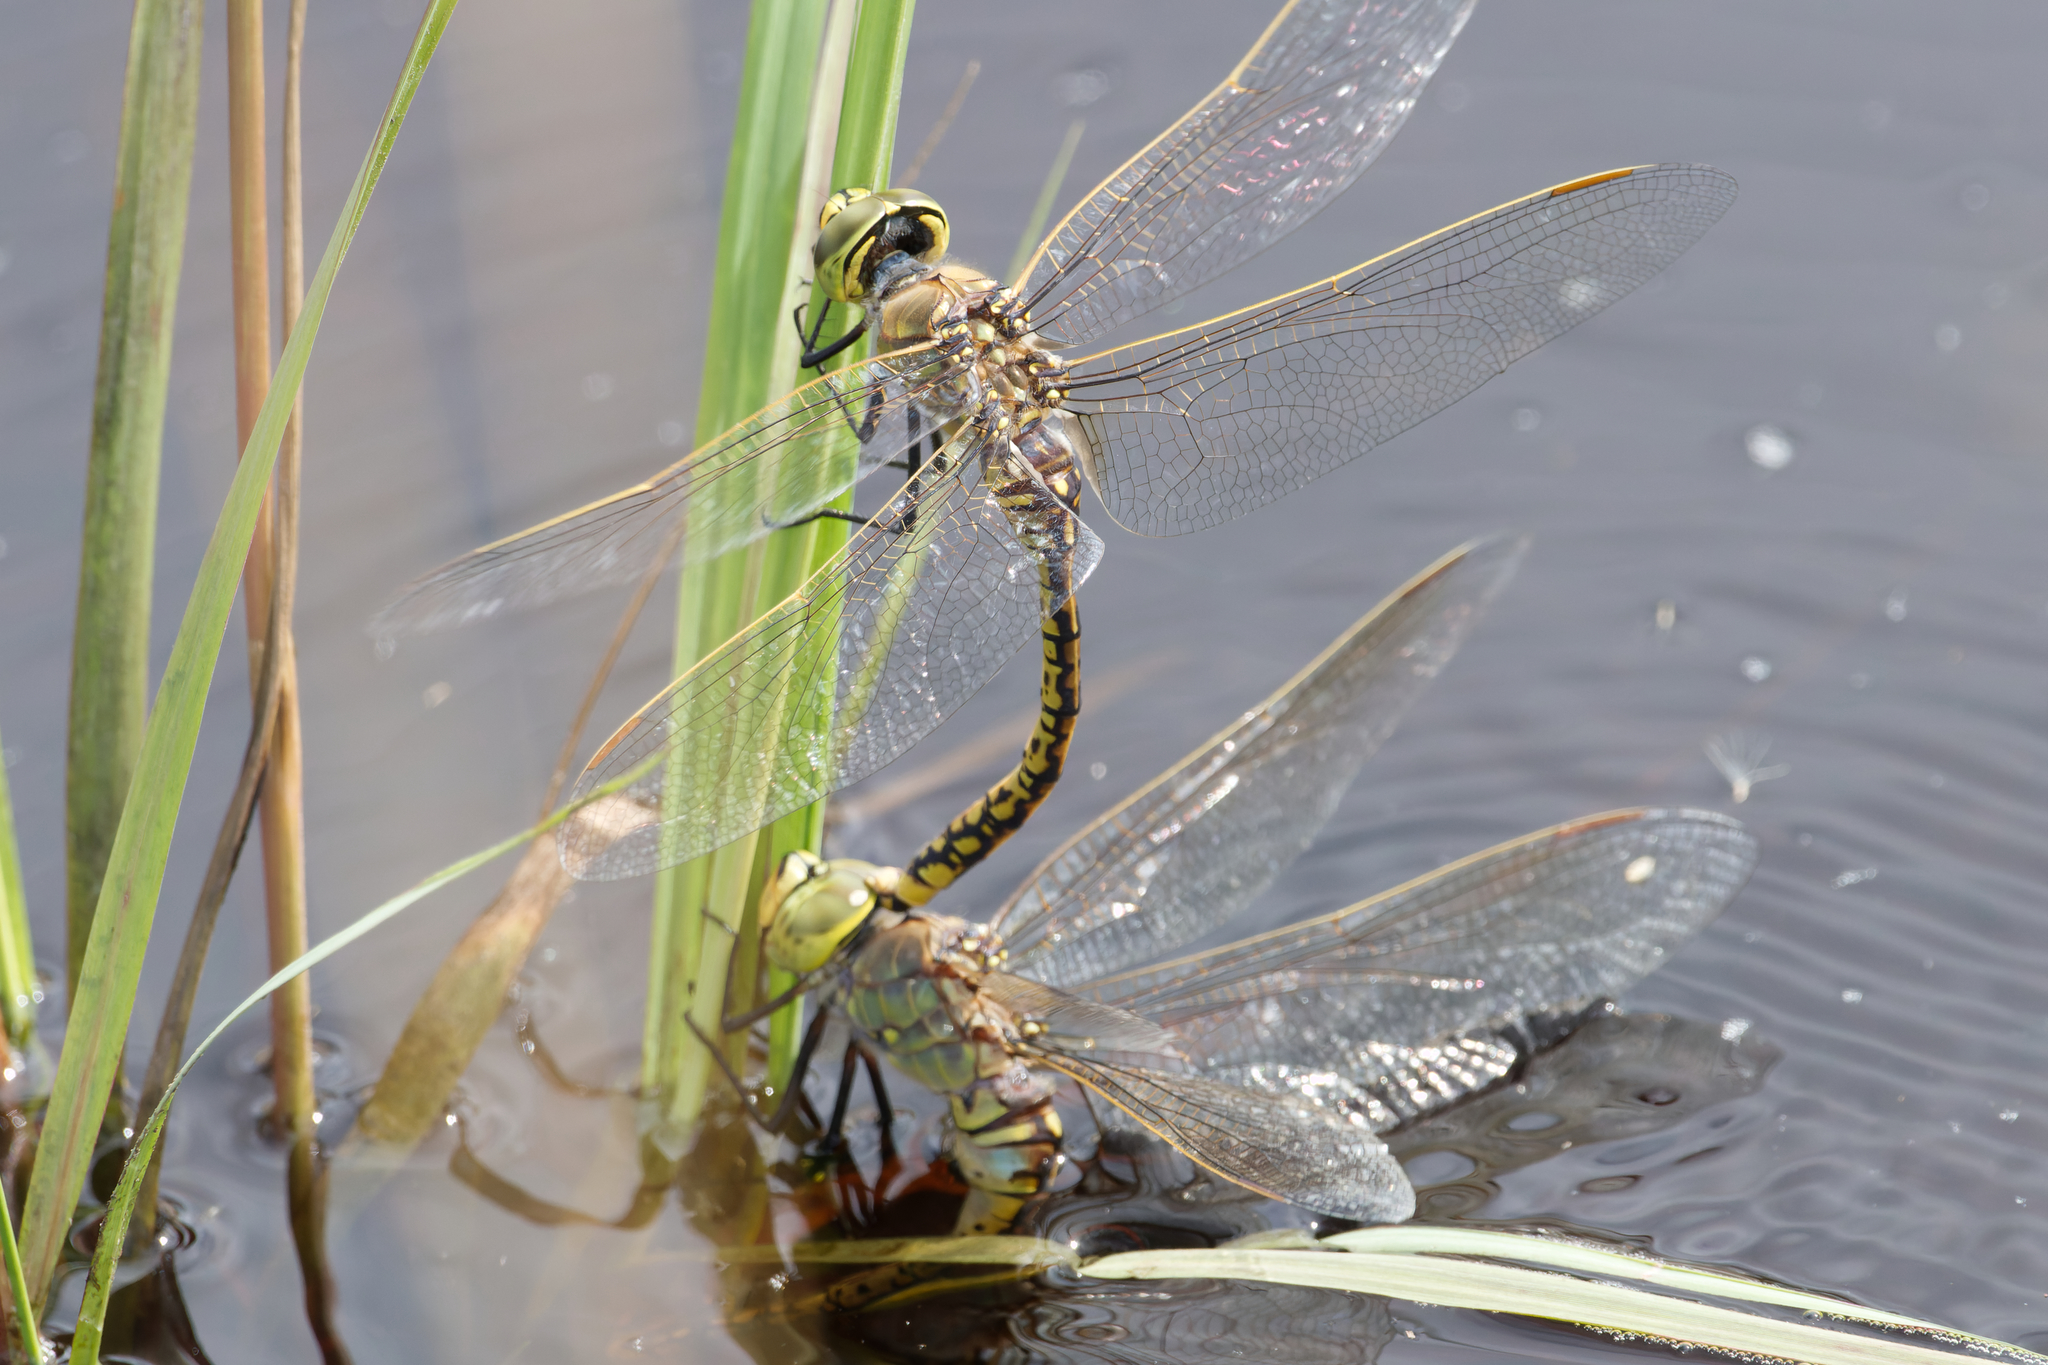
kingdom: Animalia
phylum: Arthropoda
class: Insecta
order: Odonata
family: Aeshnidae
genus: Anax
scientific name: Anax papuensis
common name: Australian emperor
